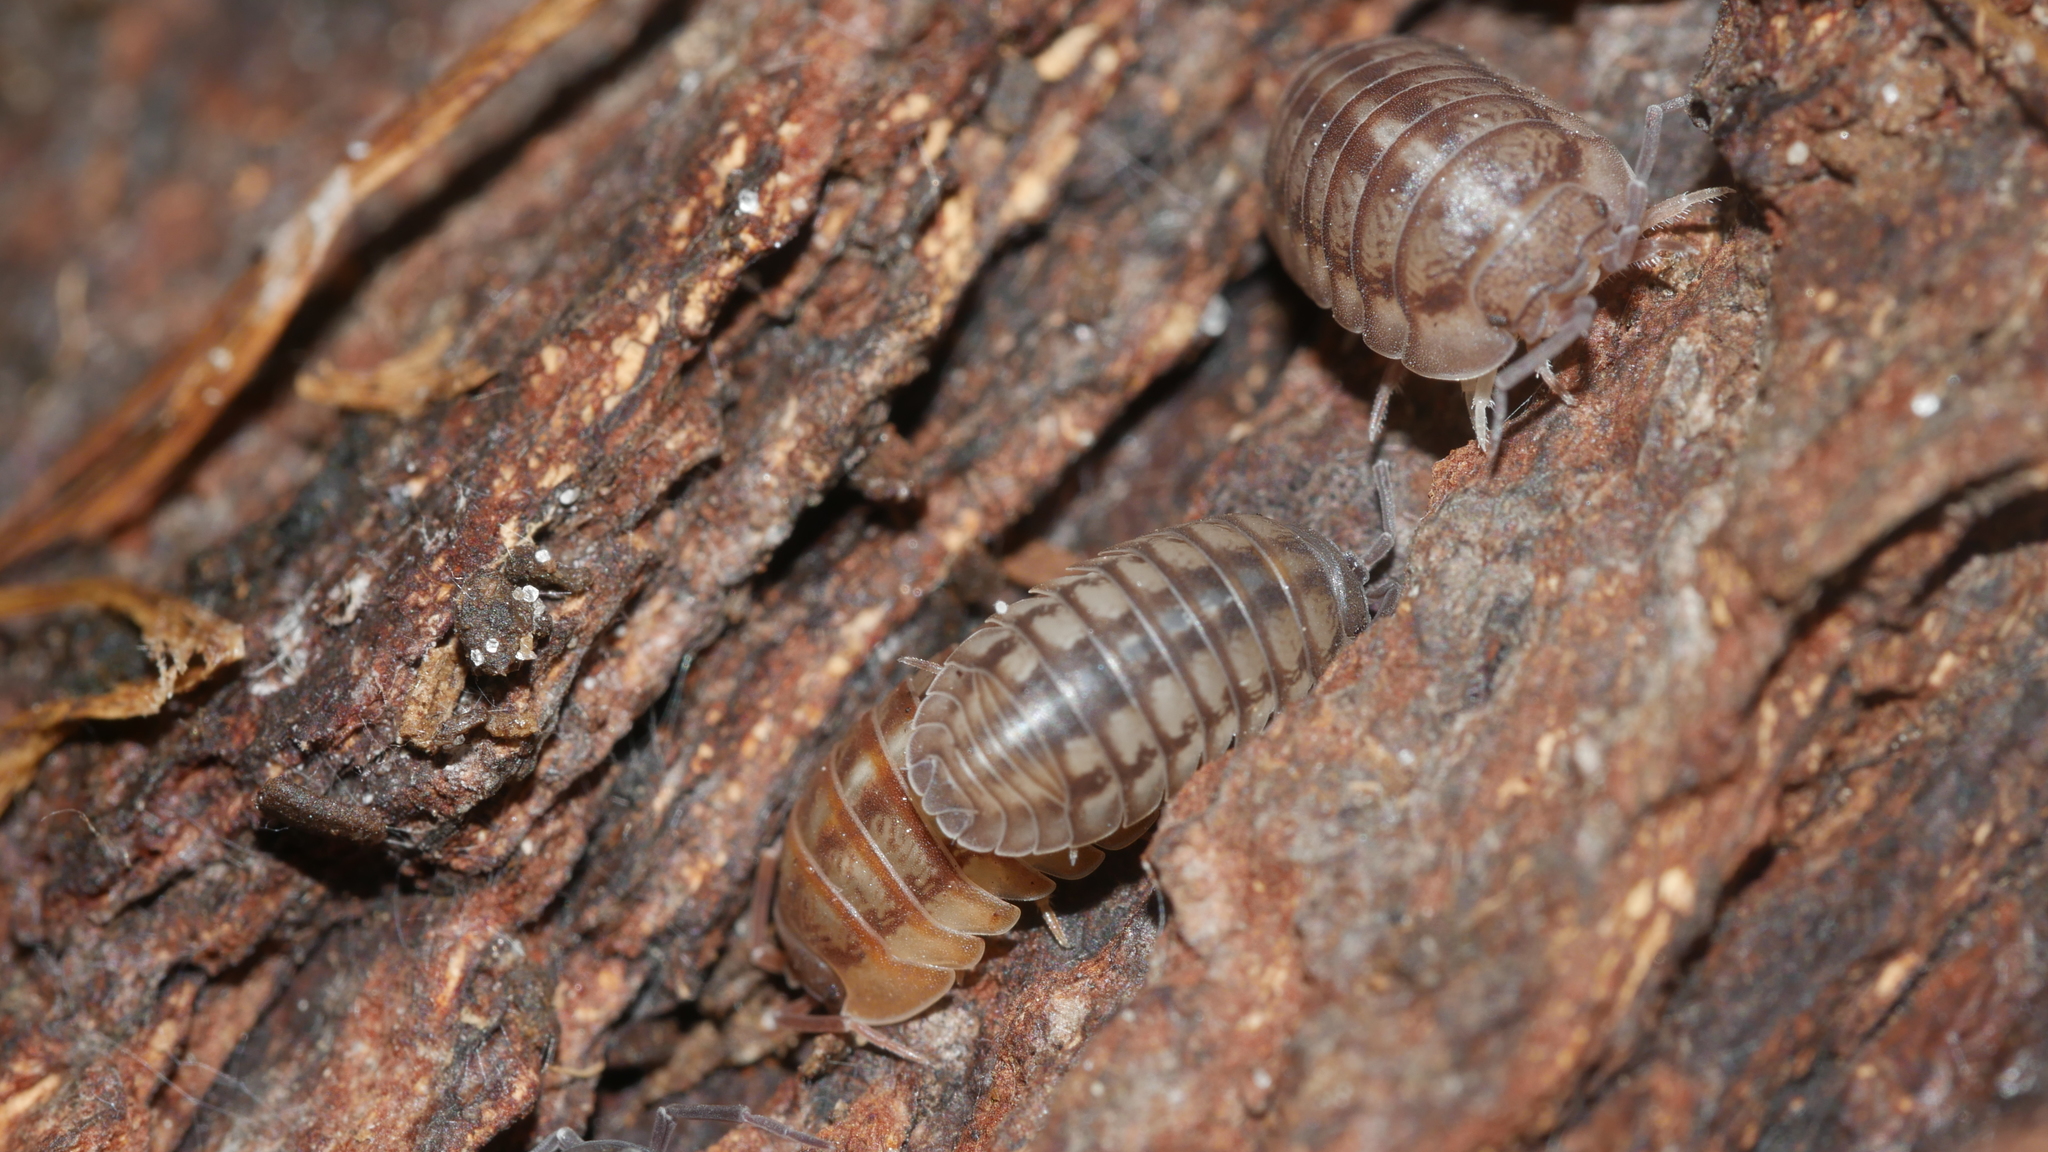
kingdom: Animalia
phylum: Arthropoda
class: Malacostraca
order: Isopoda
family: Armadillidiidae
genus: Armadillidium
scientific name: Armadillidium nasatum
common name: Isopod
